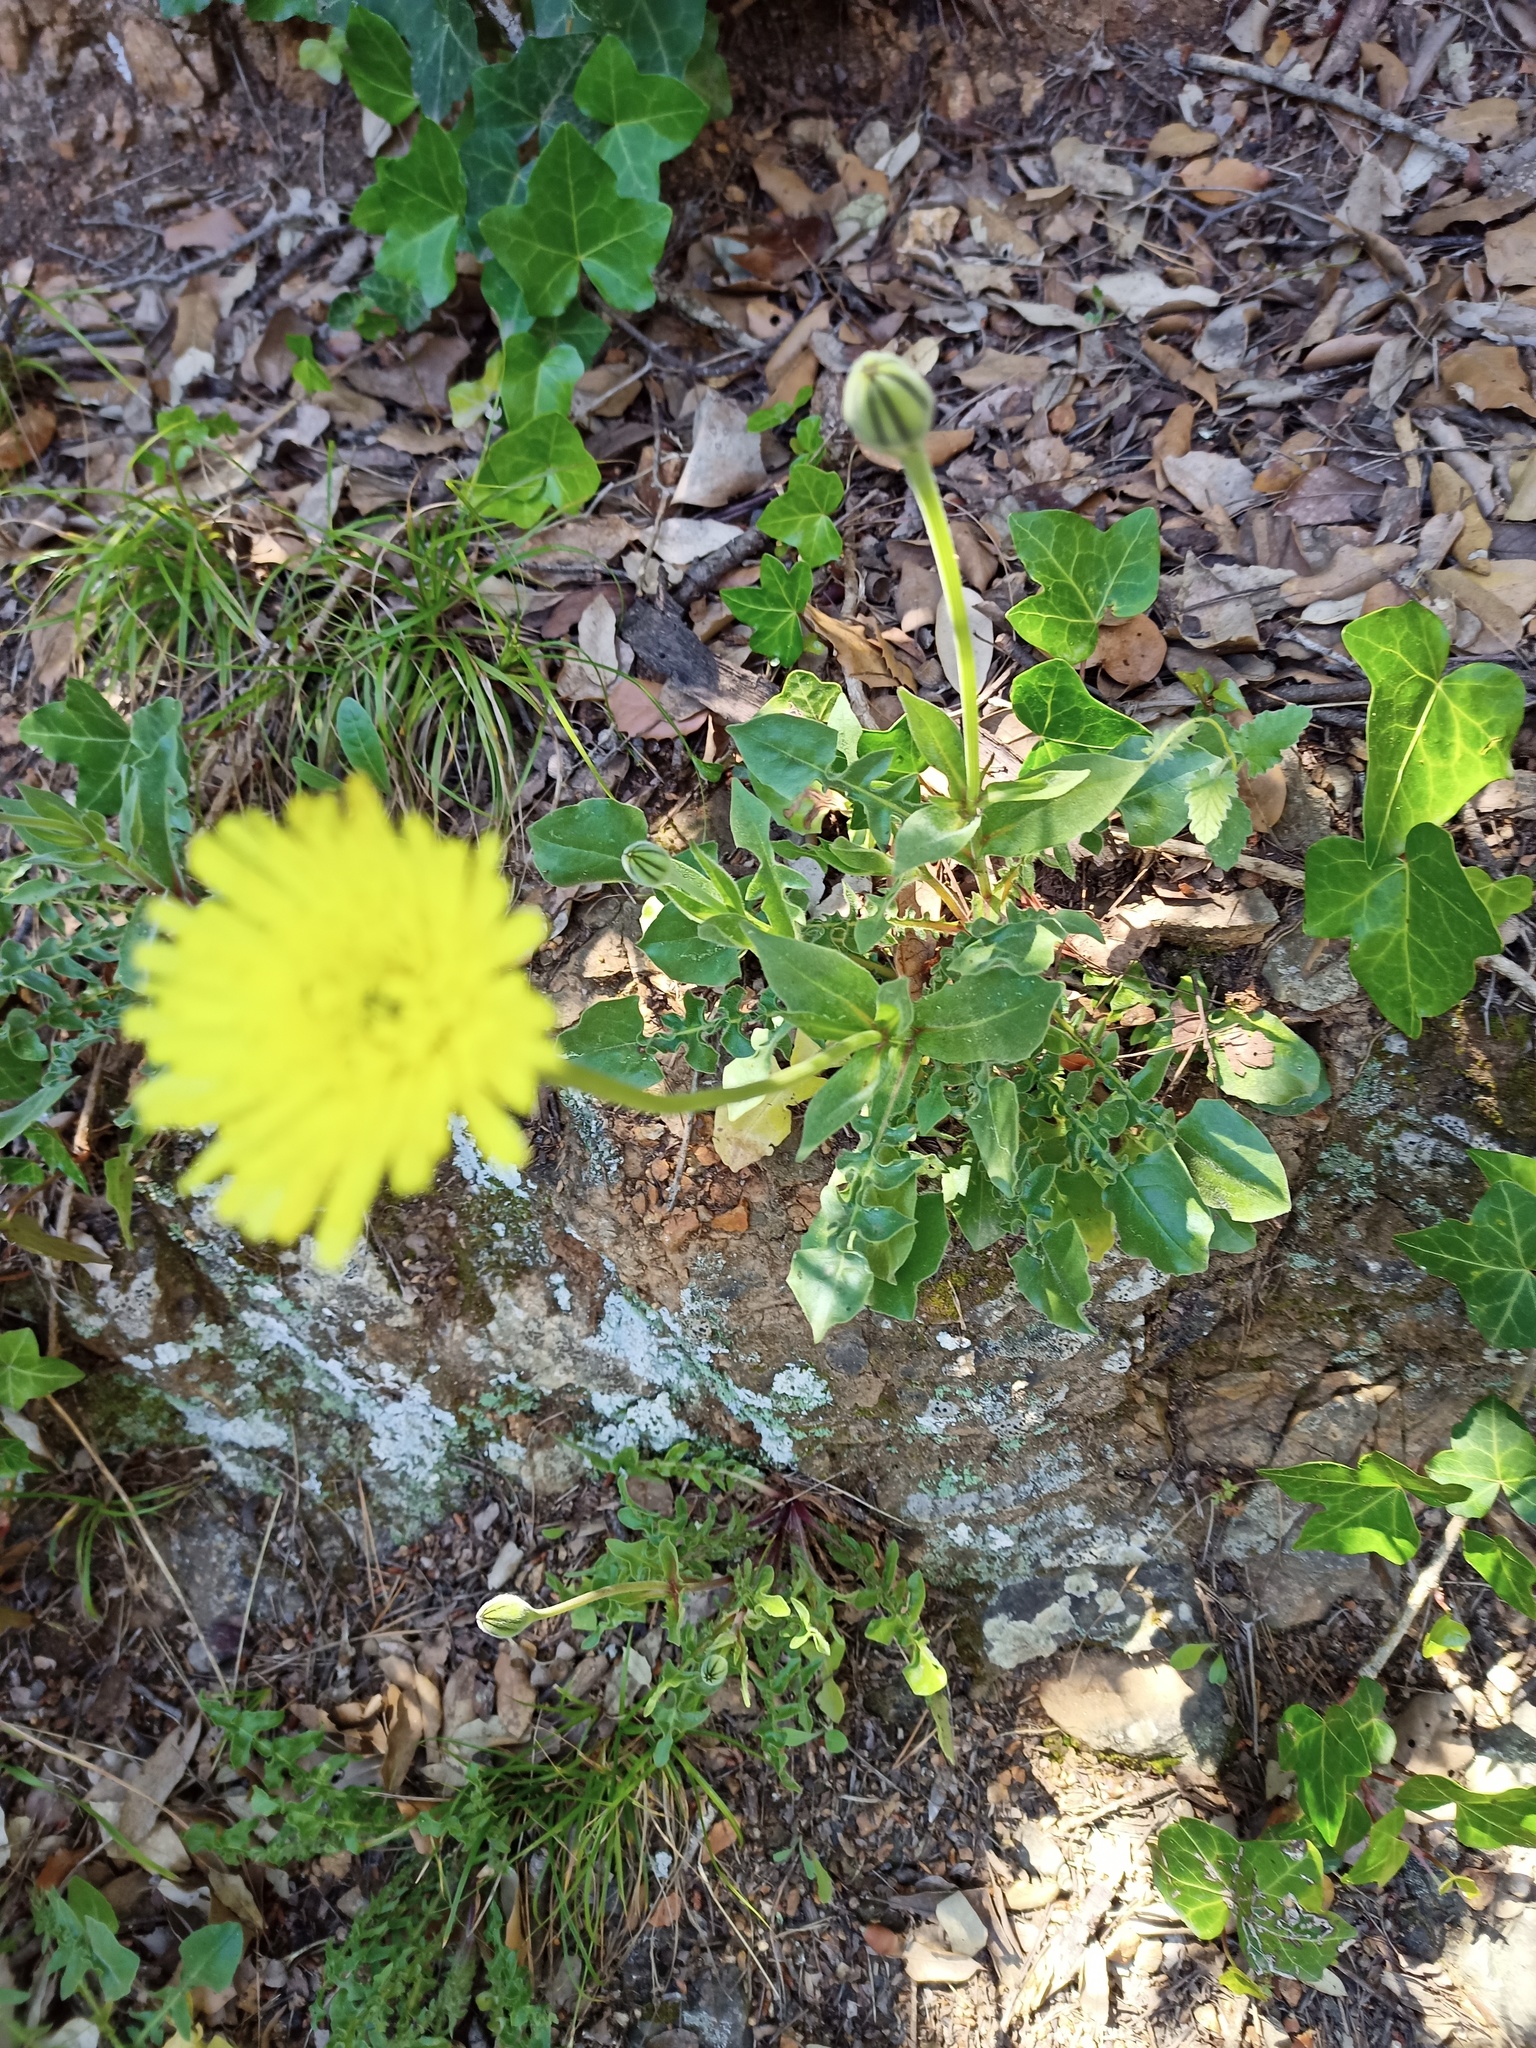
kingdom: Plantae
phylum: Tracheophyta
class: Magnoliopsida
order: Asterales
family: Asteraceae
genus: Urospermum
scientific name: Urospermum dalechampii
